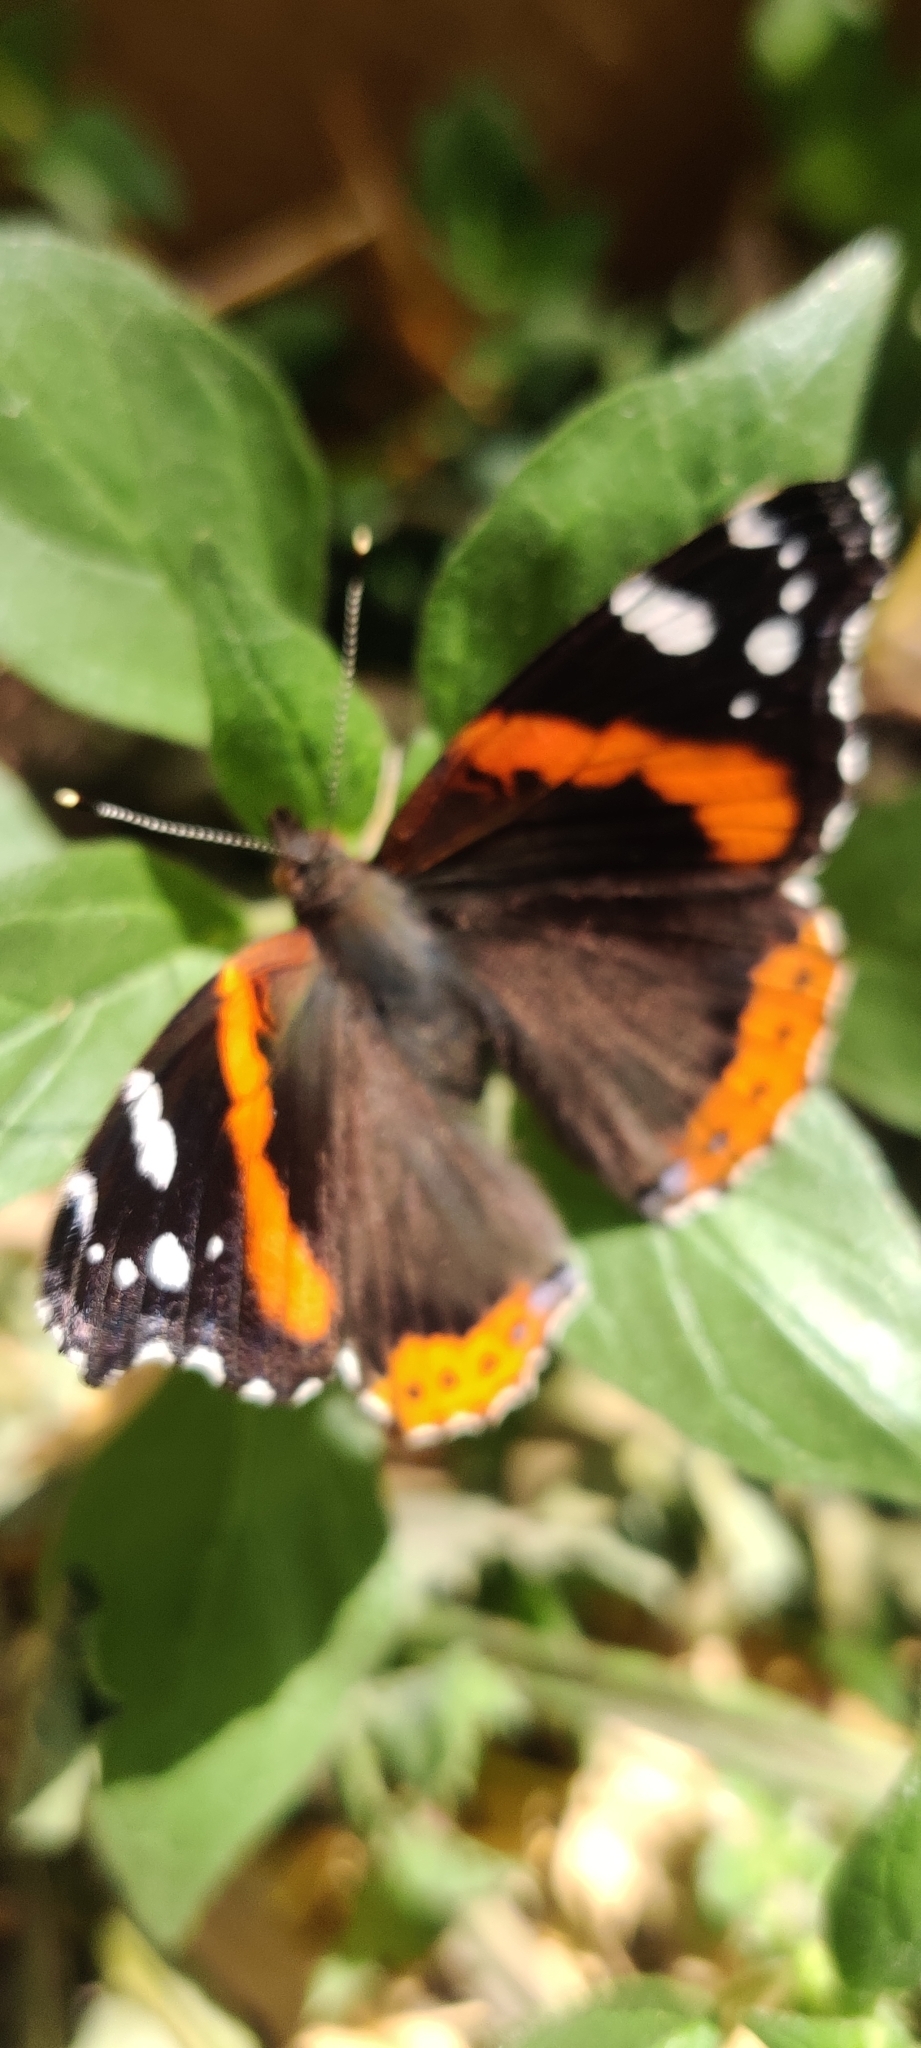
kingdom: Animalia
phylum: Arthropoda
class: Insecta
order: Lepidoptera
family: Nymphalidae
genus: Vanessa
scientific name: Vanessa atalanta
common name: Red admiral
